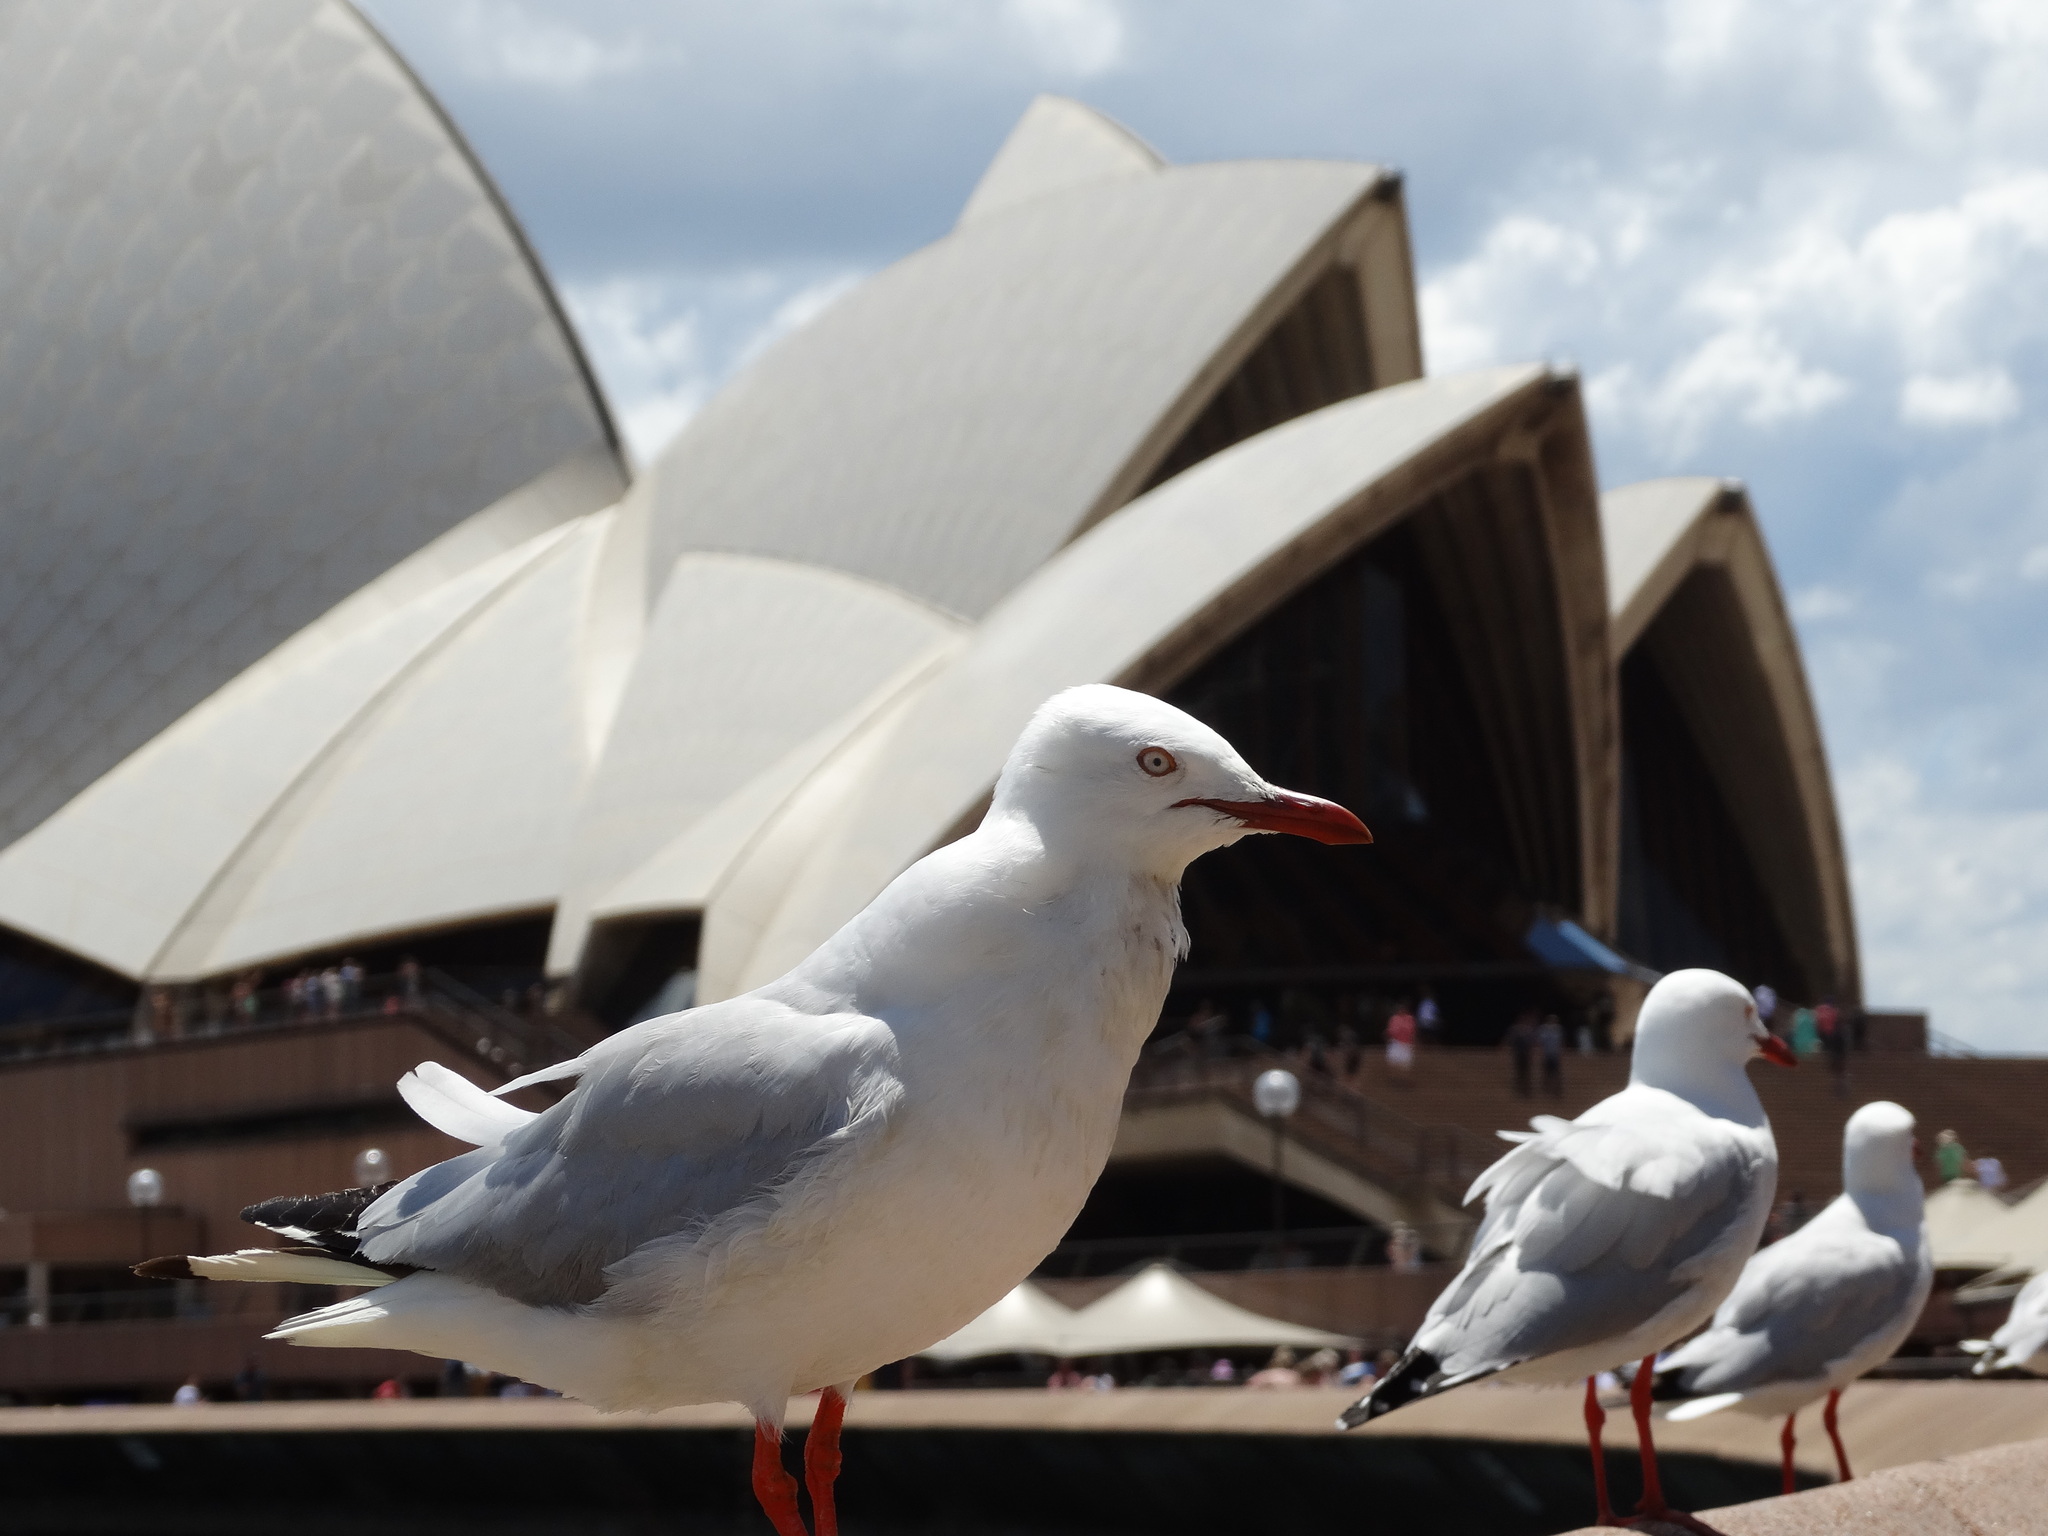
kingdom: Animalia
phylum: Chordata
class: Aves
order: Charadriiformes
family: Laridae
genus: Chroicocephalus
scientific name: Chroicocephalus novaehollandiae
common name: Silver gull
